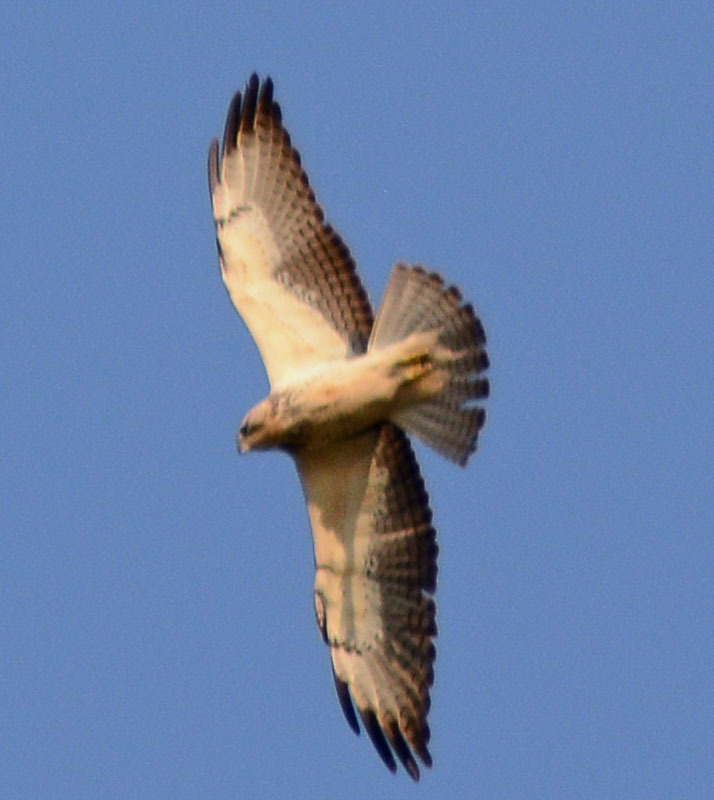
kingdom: Animalia
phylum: Chordata
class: Aves
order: Accipitriformes
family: Accipitridae
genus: Buteo
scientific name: Buteo swainsoni
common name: Swainson's hawk
